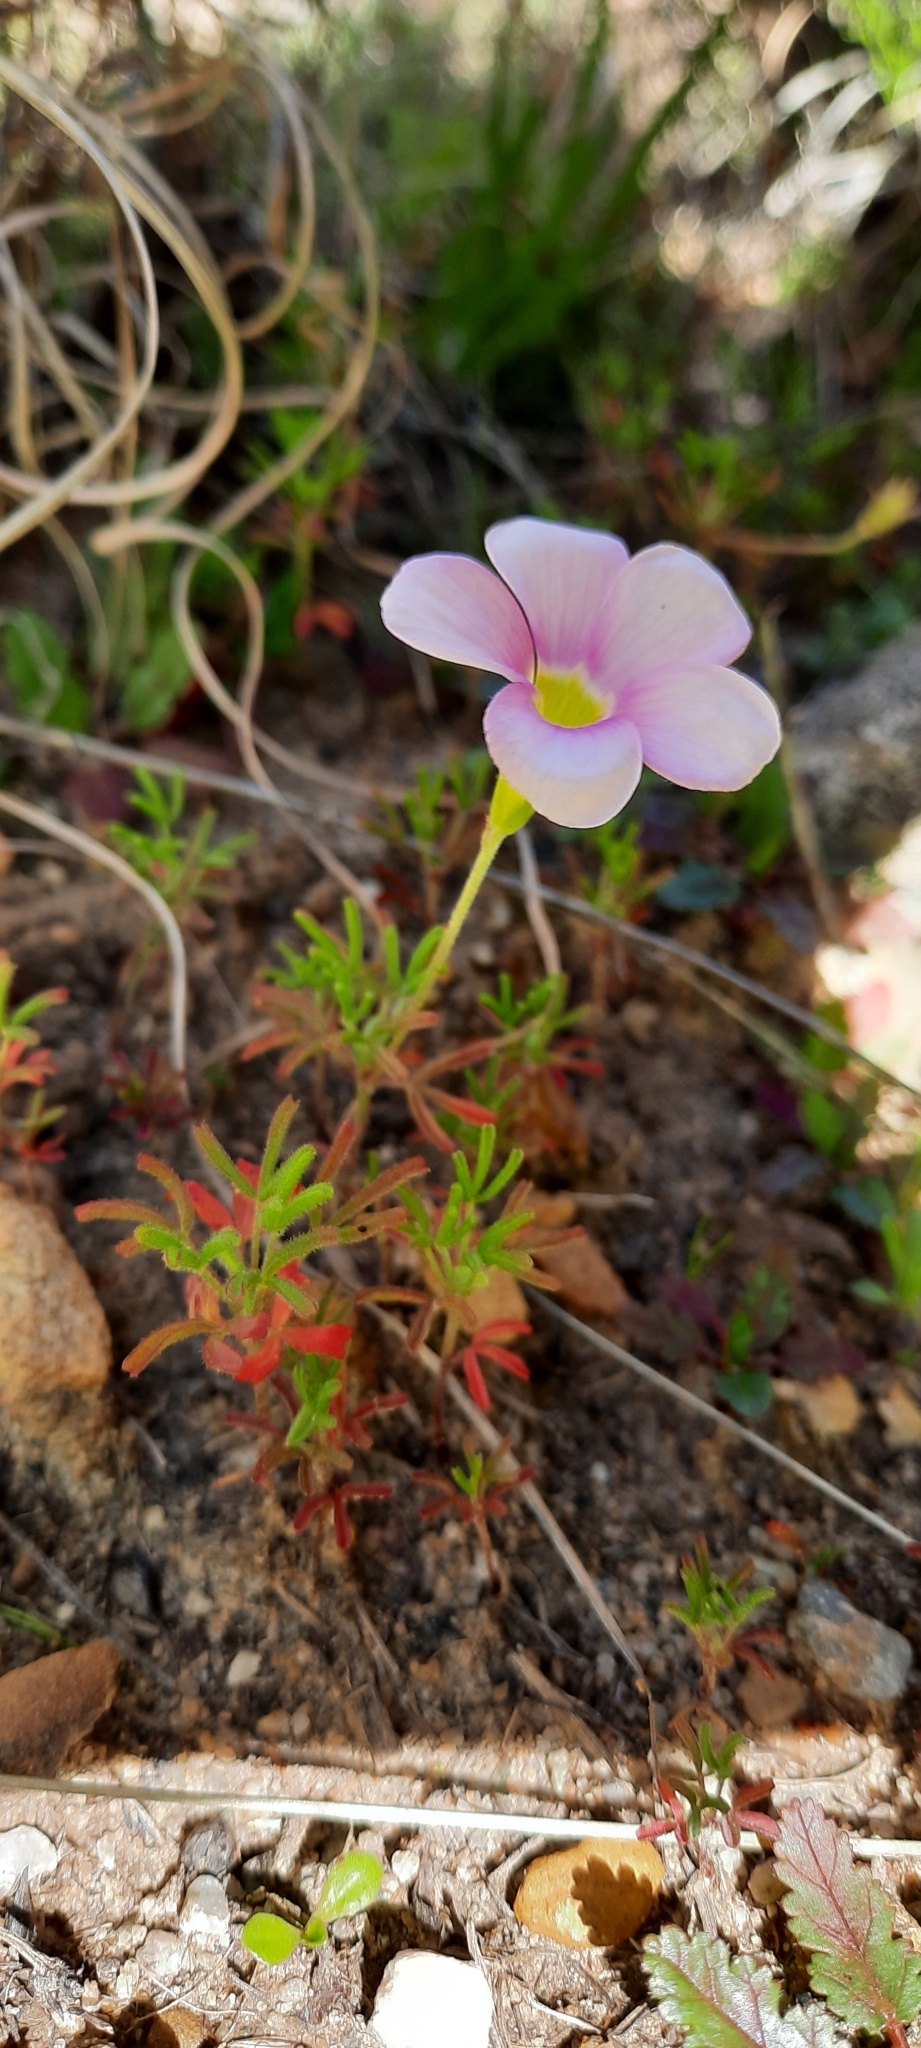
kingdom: Plantae
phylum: Tracheophyta
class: Magnoliopsida
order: Oxalidales
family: Oxalidaceae
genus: Oxalis
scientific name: Oxalis glabra
